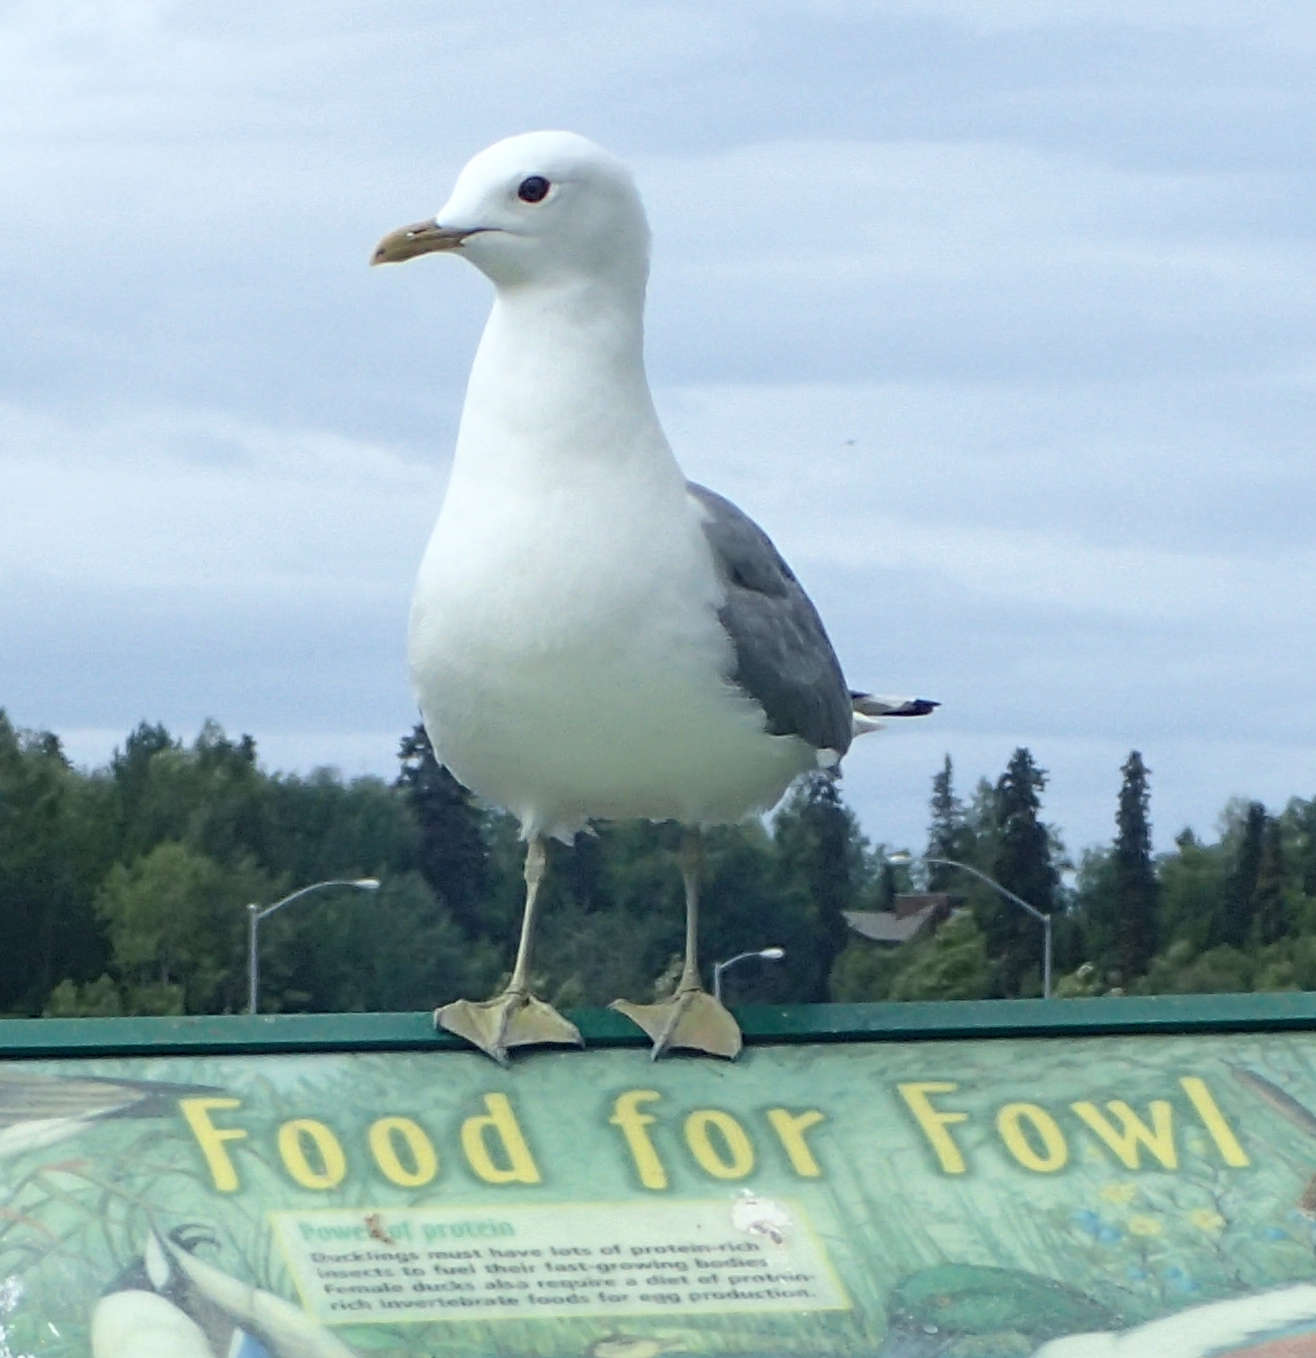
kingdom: Animalia
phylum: Chordata
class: Aves
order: Charadriiformes
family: Laridae
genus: Larus
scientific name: Larus brachyrhynchus
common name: Short-billed gull
